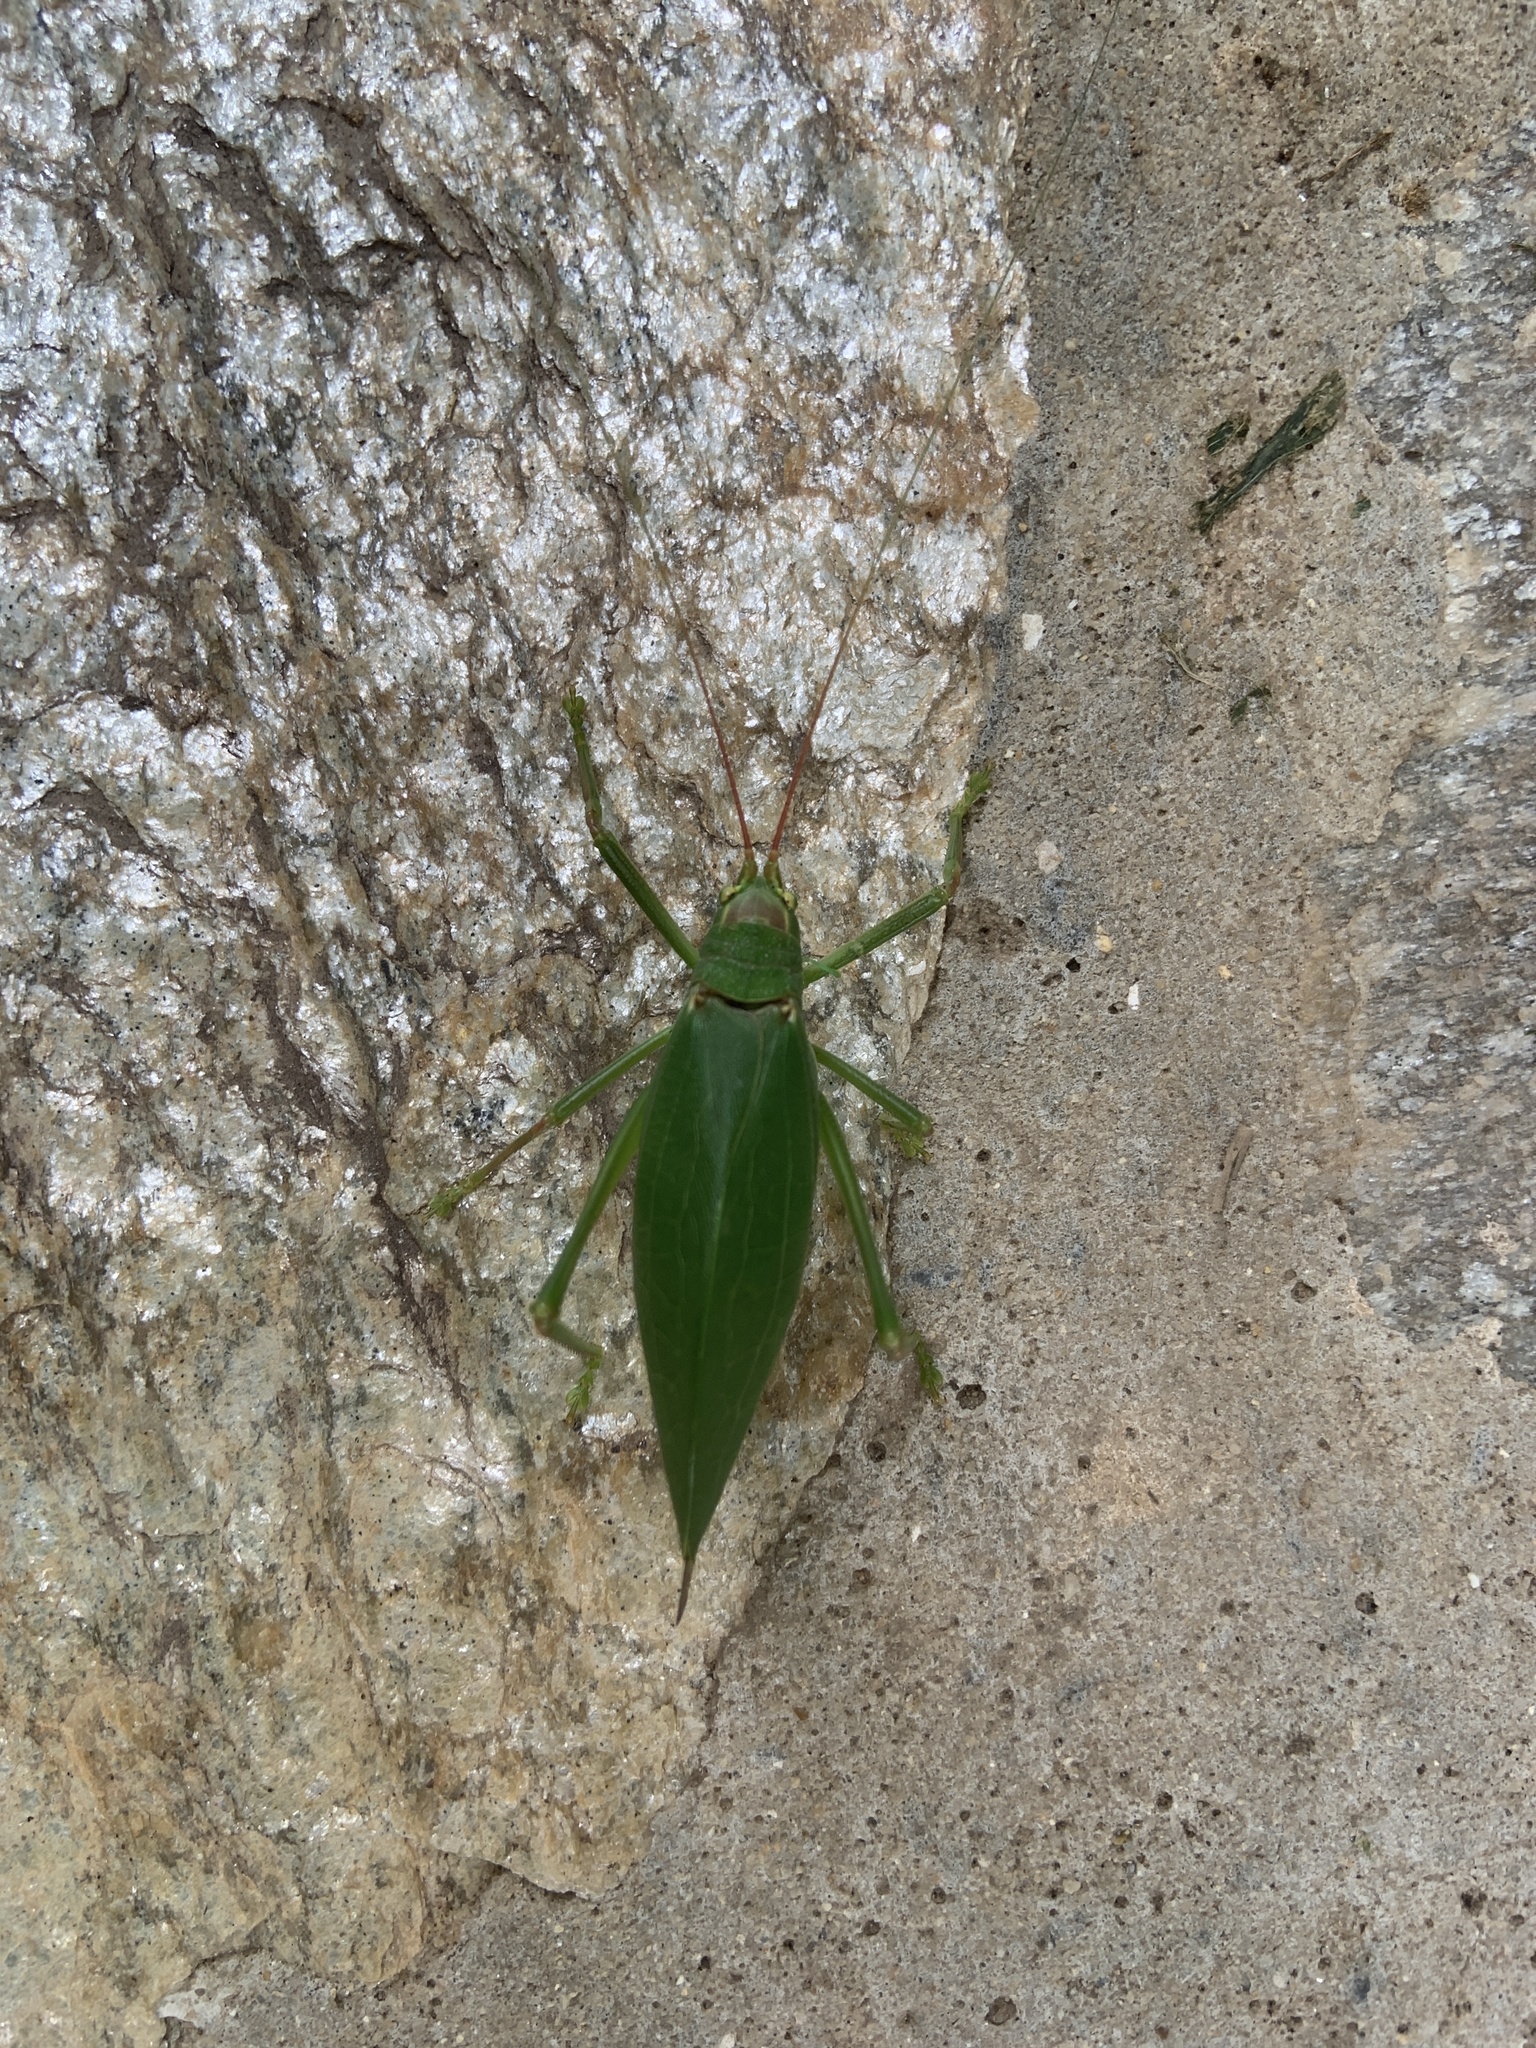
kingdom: Animalia
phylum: Arthropoda
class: Insecta
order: Orthoptera
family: Tettigoniidae
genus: Pterophylla
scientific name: Pterophylla camellifolia
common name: Common true katydid
